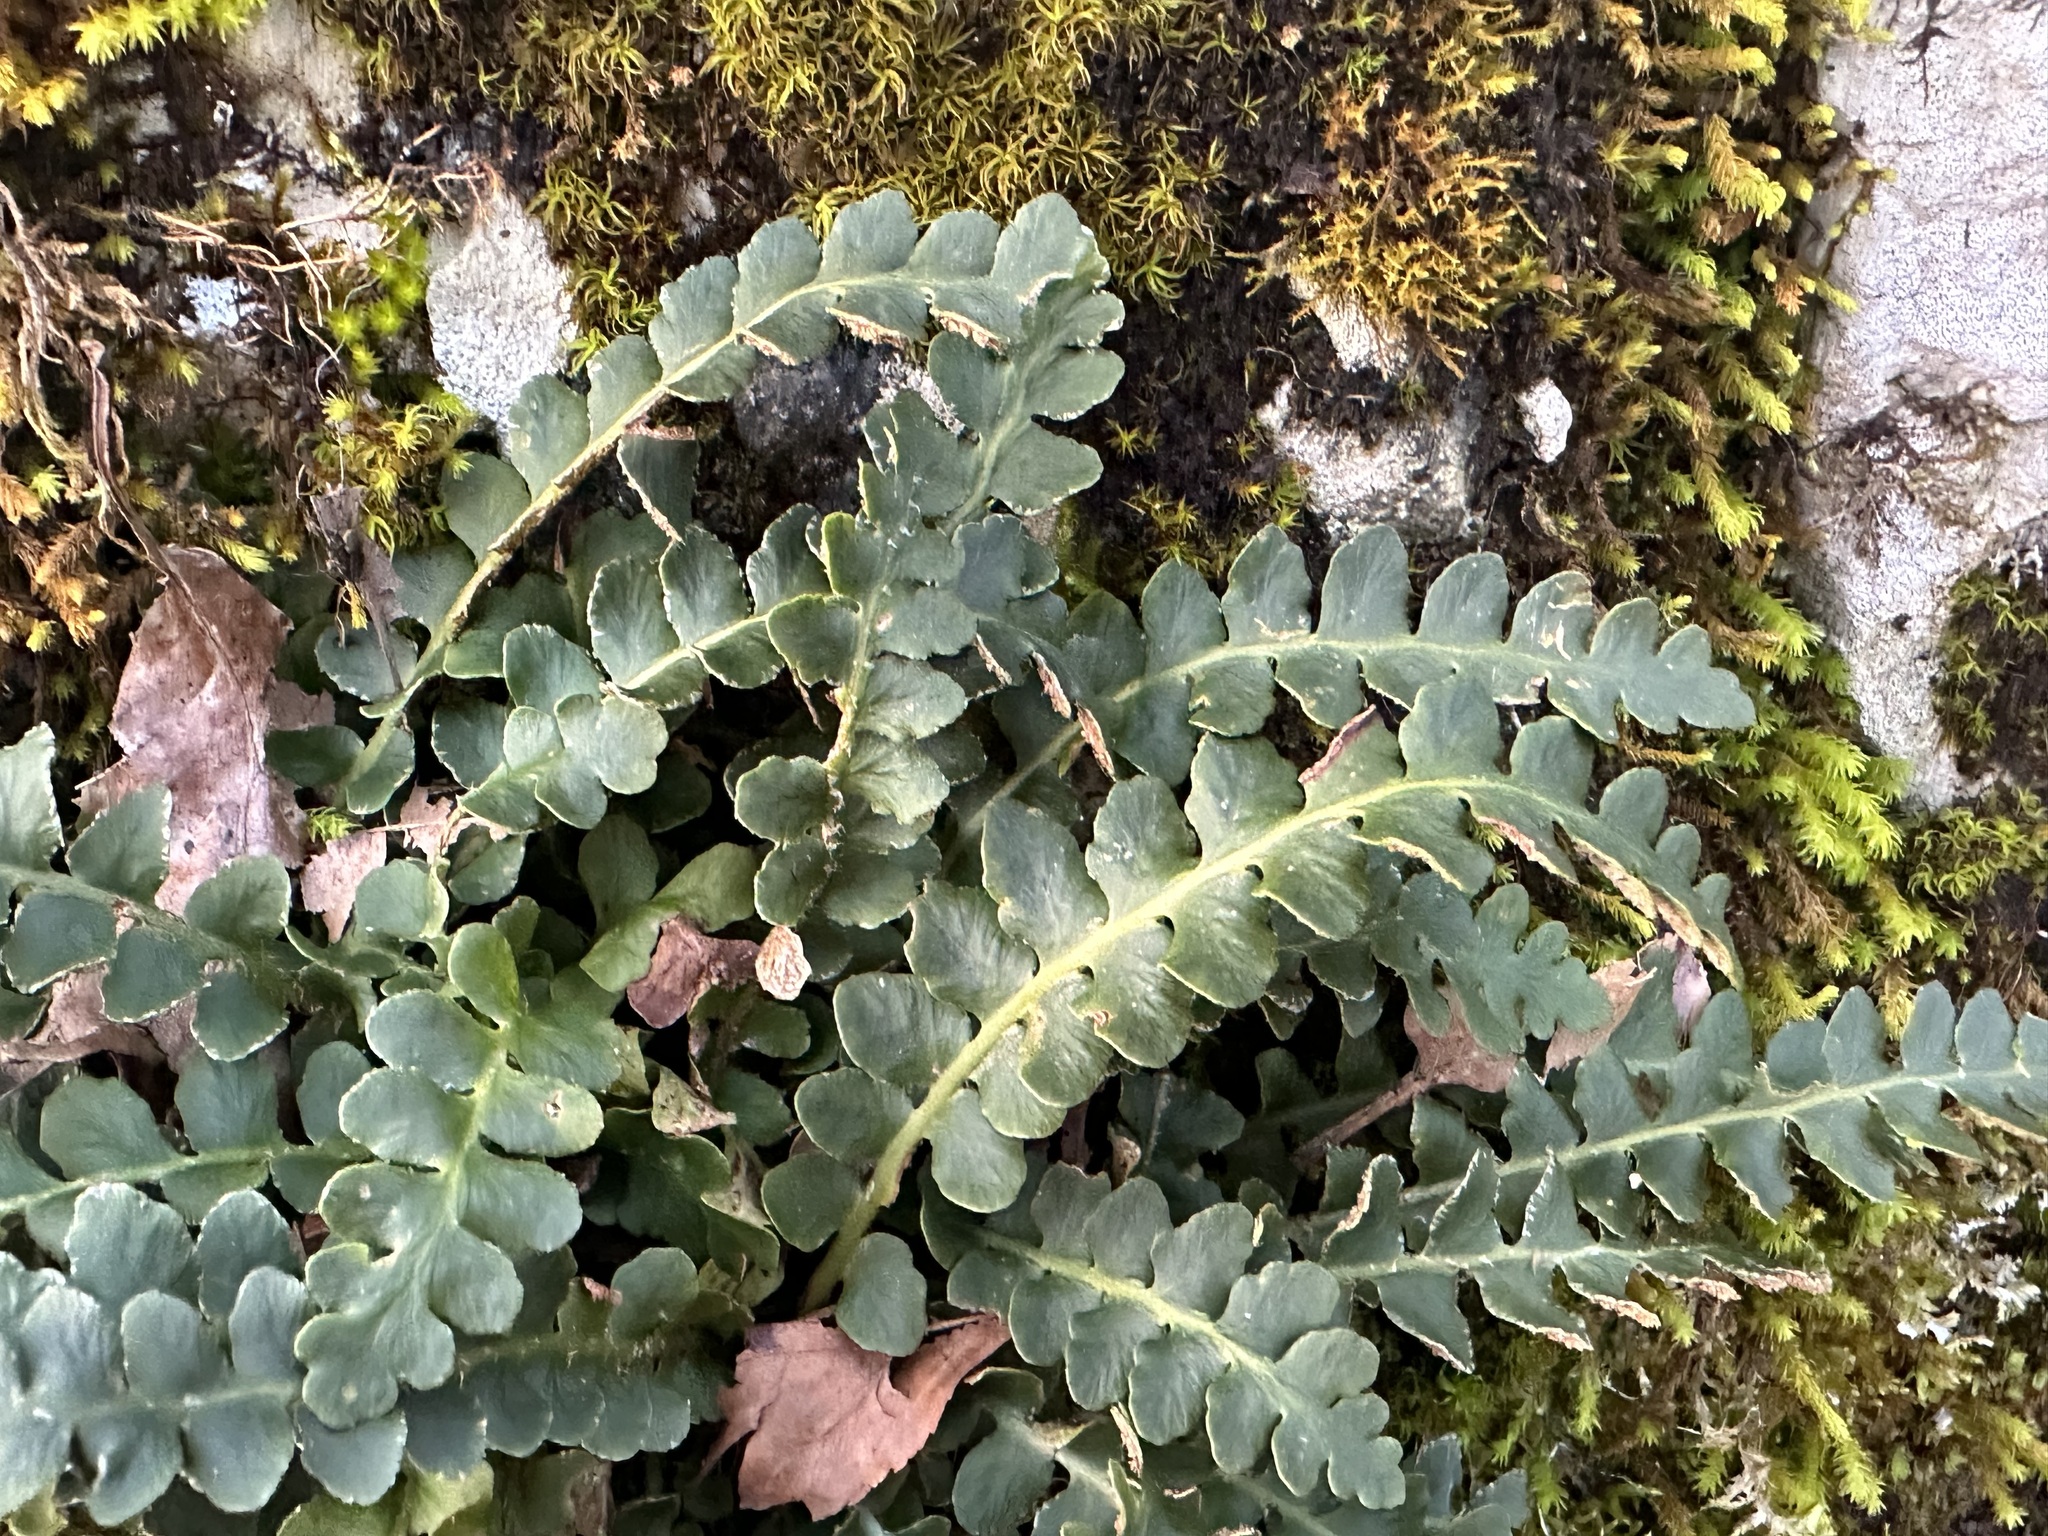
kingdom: Plantae
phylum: Tracheophyta
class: Polypodiopsida
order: Polypodiales
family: Aspleniaceae
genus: Asplenium
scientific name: Asplenium ceterach
